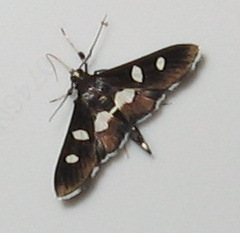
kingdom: Animalia
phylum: Arthropoda
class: Insecta
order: Lepidoptera
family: Crambidae
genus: Desmia
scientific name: Desmia
